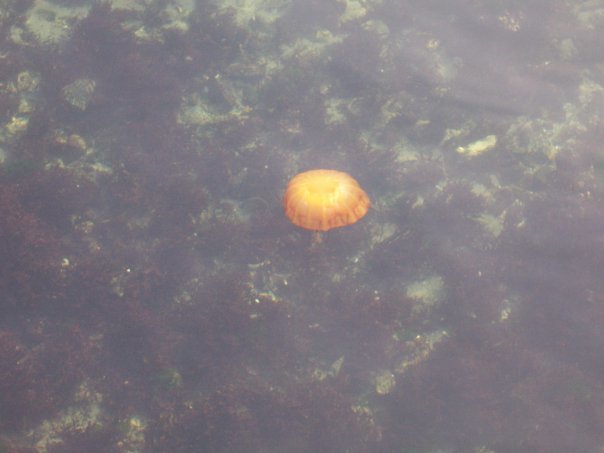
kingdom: Animalia
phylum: Cnidaria
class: Scyphozoa
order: Semaeostomeae
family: Pelagiidae
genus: Chrysaora
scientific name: Chrysaora fuscescens
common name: Sea nettle
